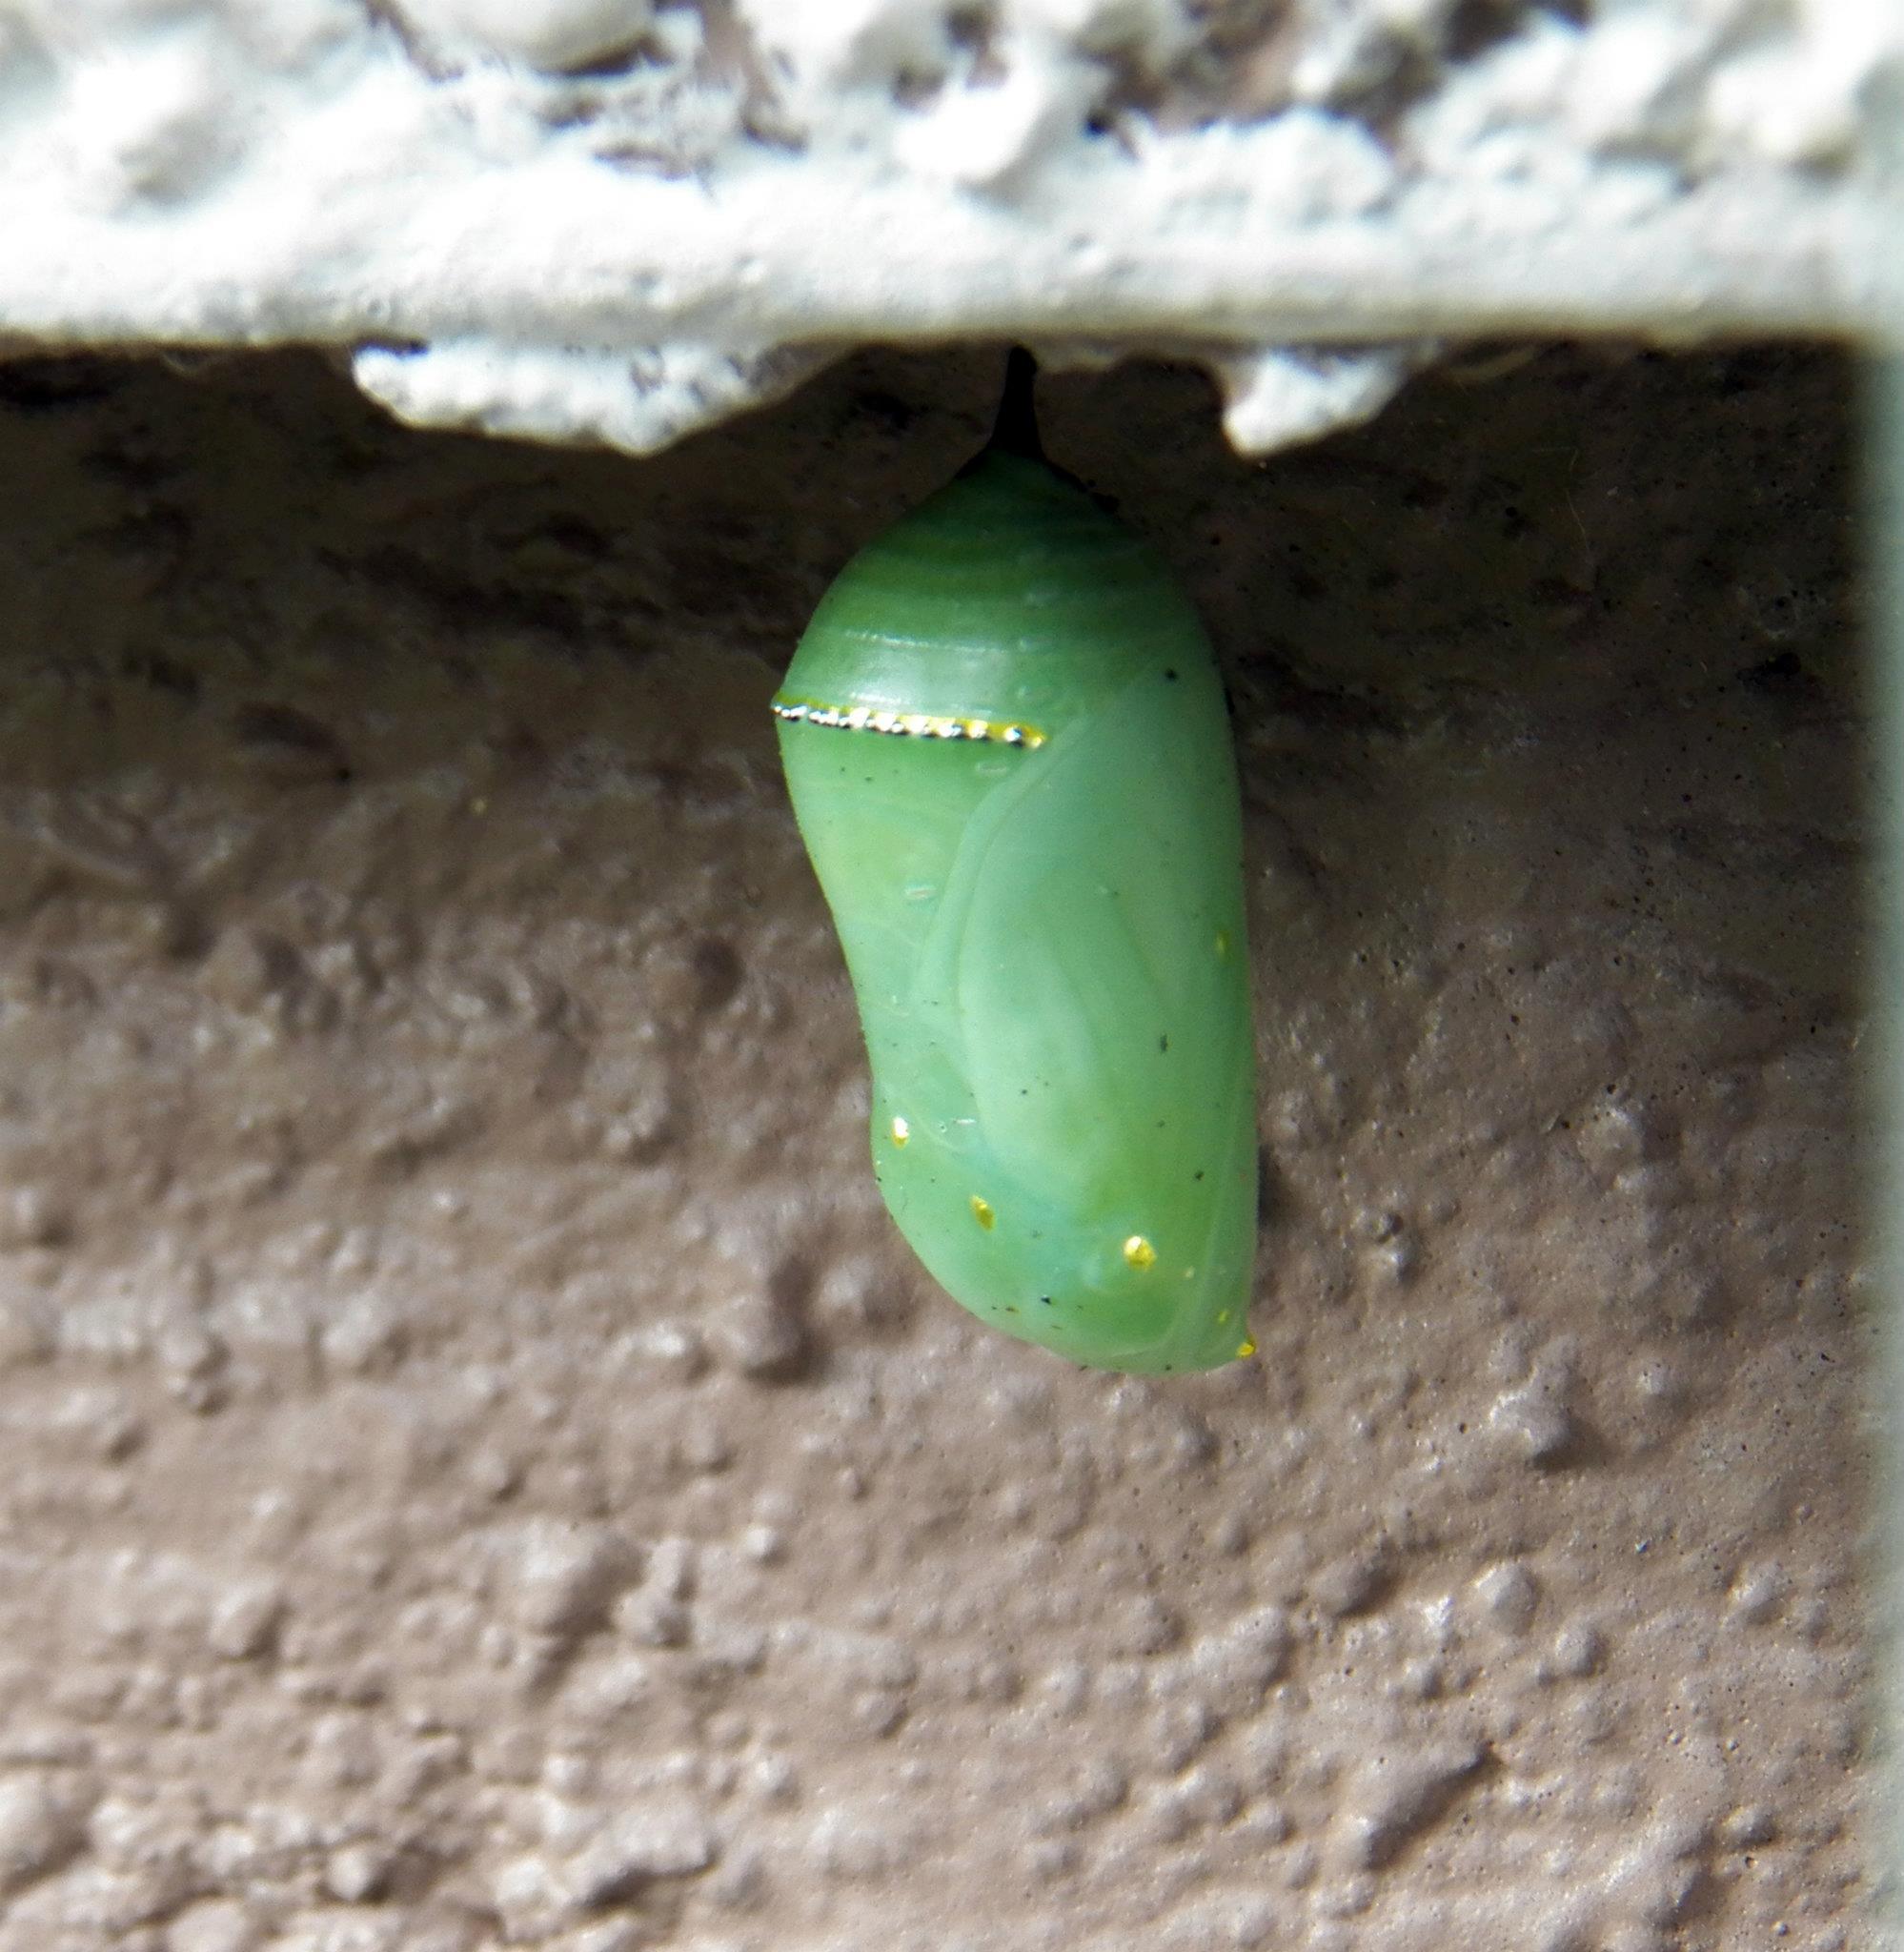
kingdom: Animalia
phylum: Arthropoda
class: Insecta
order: Lepidoptera
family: Nymphalidae
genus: Danaus
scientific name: Danaus plexippus
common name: Monarch
